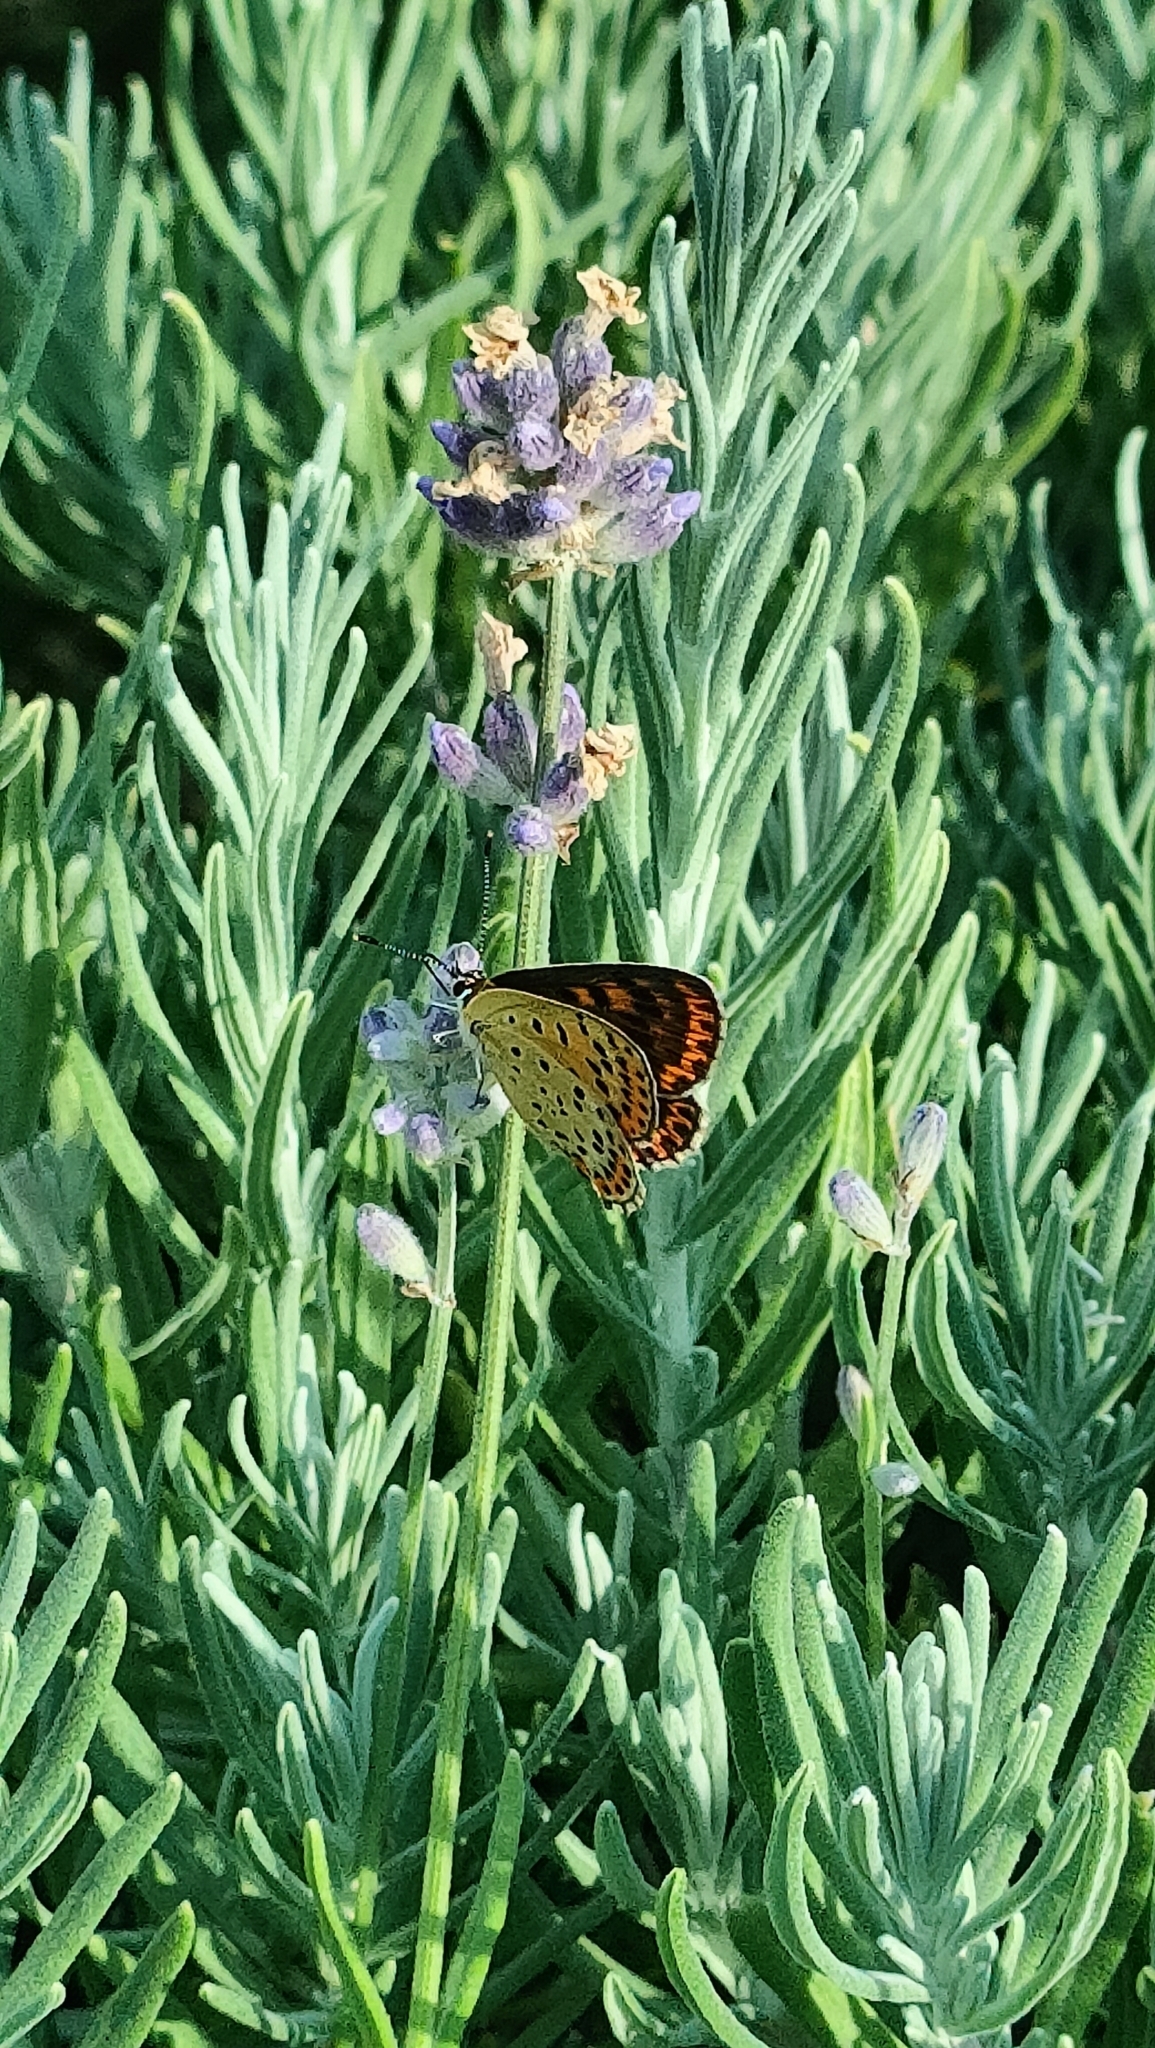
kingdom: Animalia
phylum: Arthropoda
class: Insecta
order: Lepidoptera
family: Lycaenidae
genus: Loweia
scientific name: Loweia tityrus
